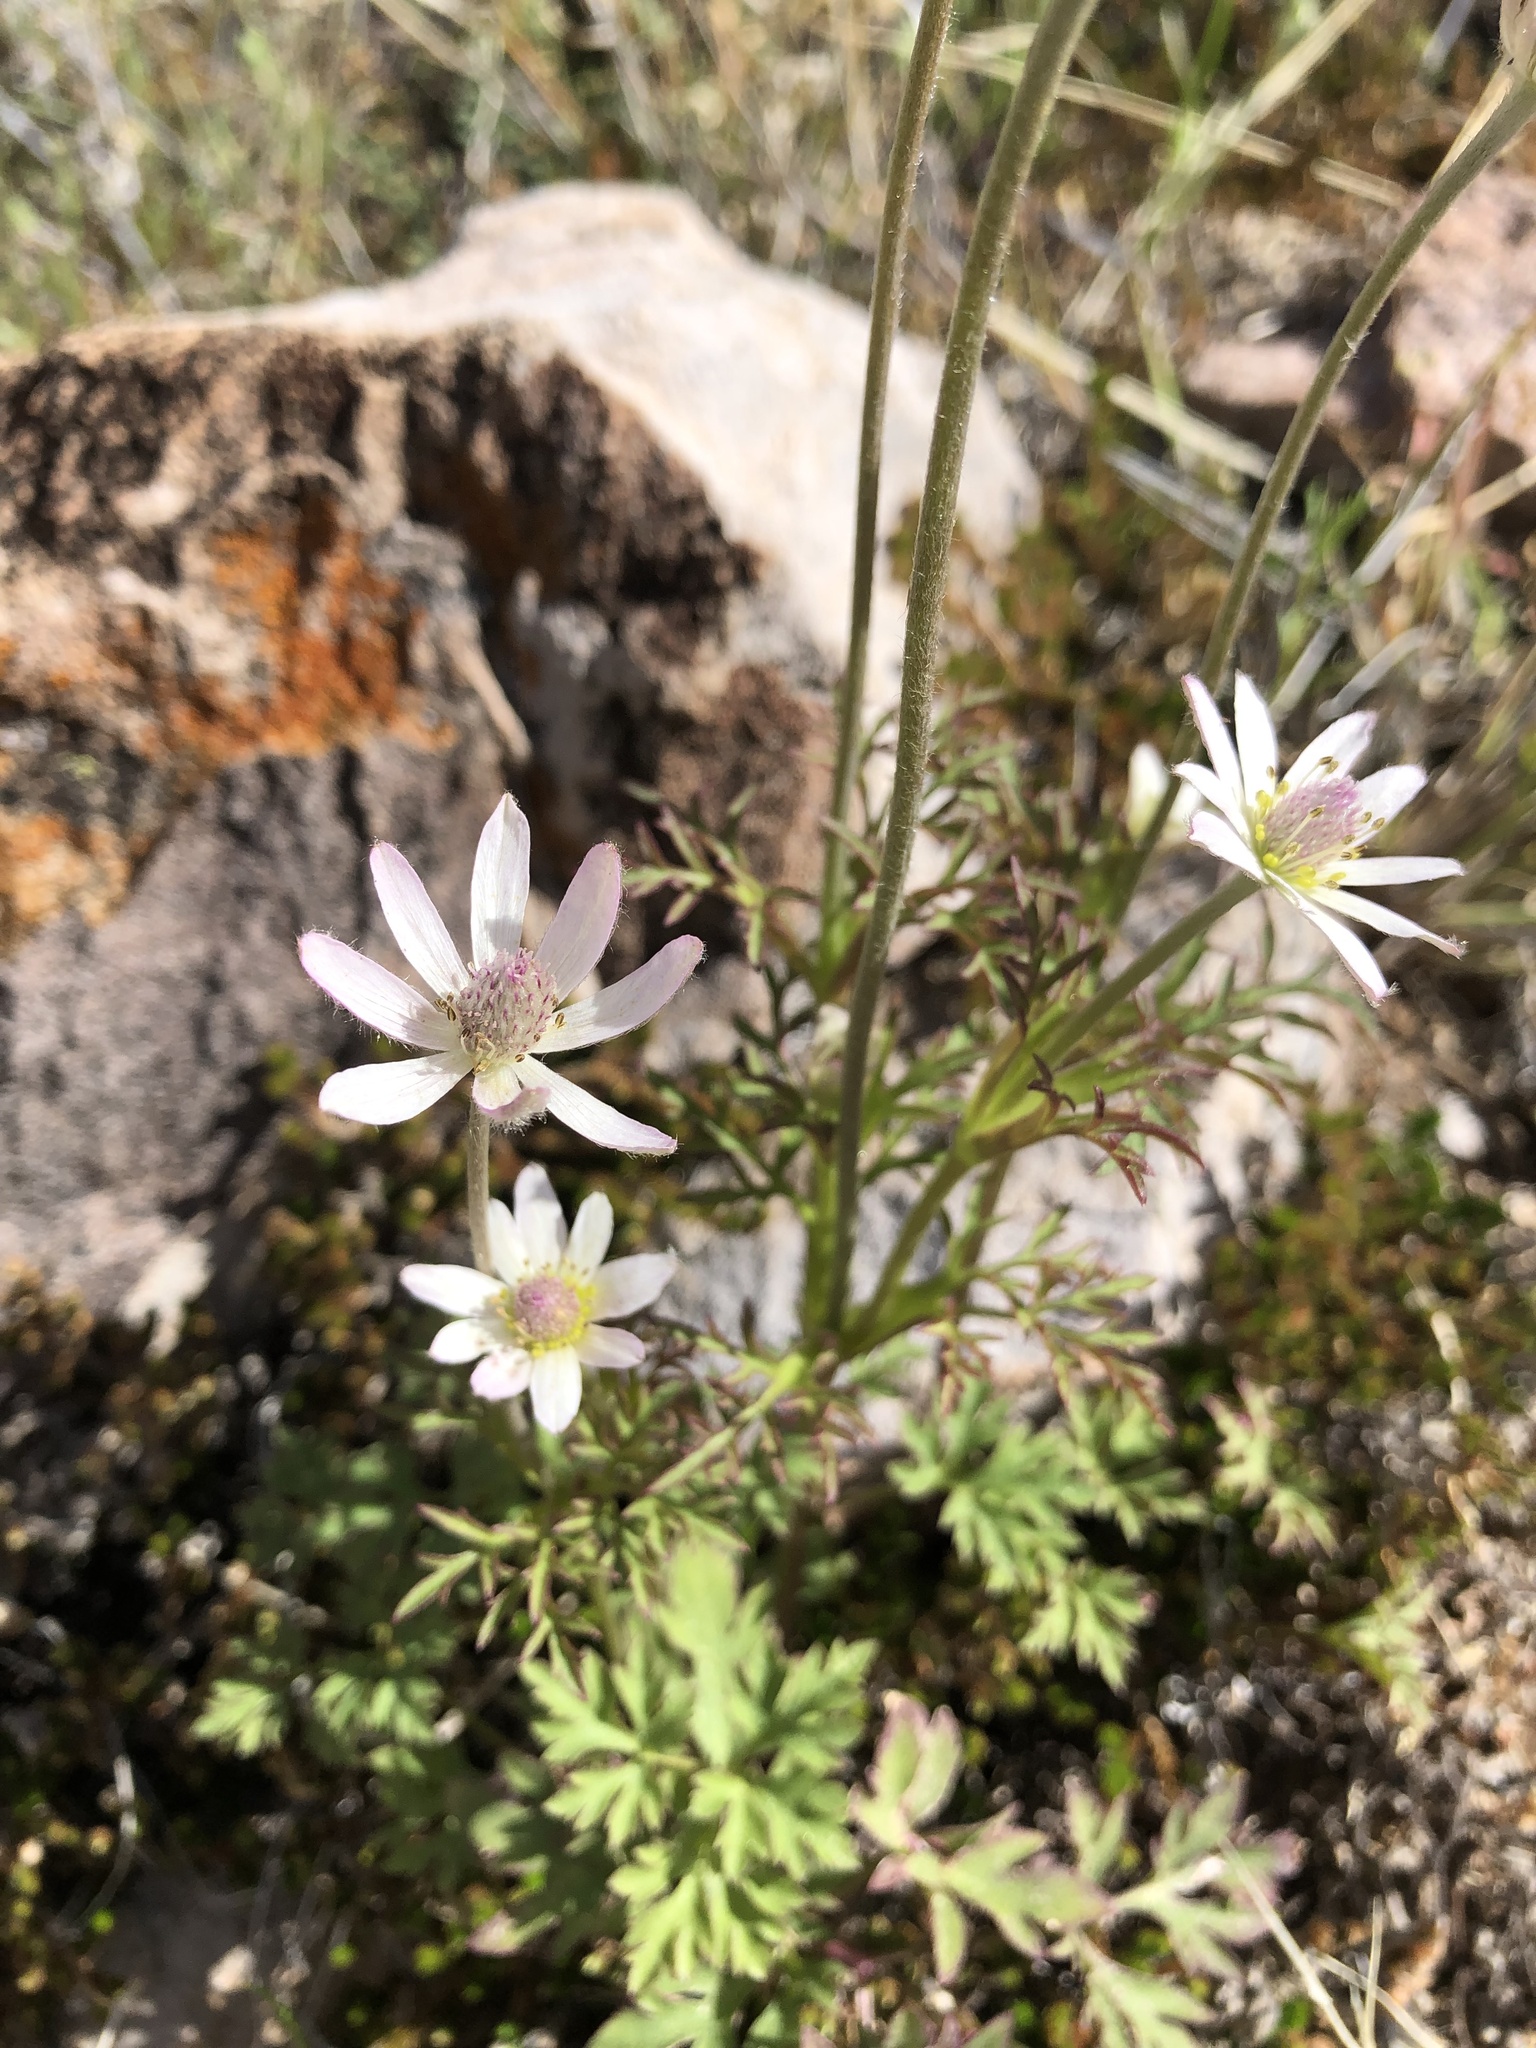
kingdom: Plantae
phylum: Tracheophyta
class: Magnoliopsida
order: Ranunculales
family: Ranunculaceae
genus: Anemone
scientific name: Anemone tuberosa
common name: Desert anemone
